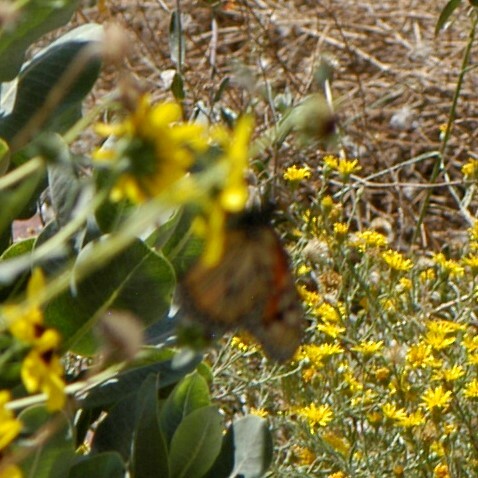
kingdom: Animalia
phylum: Arthropoda
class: Insecta
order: Lepidoptera
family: Nymphalidae
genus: Danaus
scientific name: Danaus plexippus
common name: Monarch
